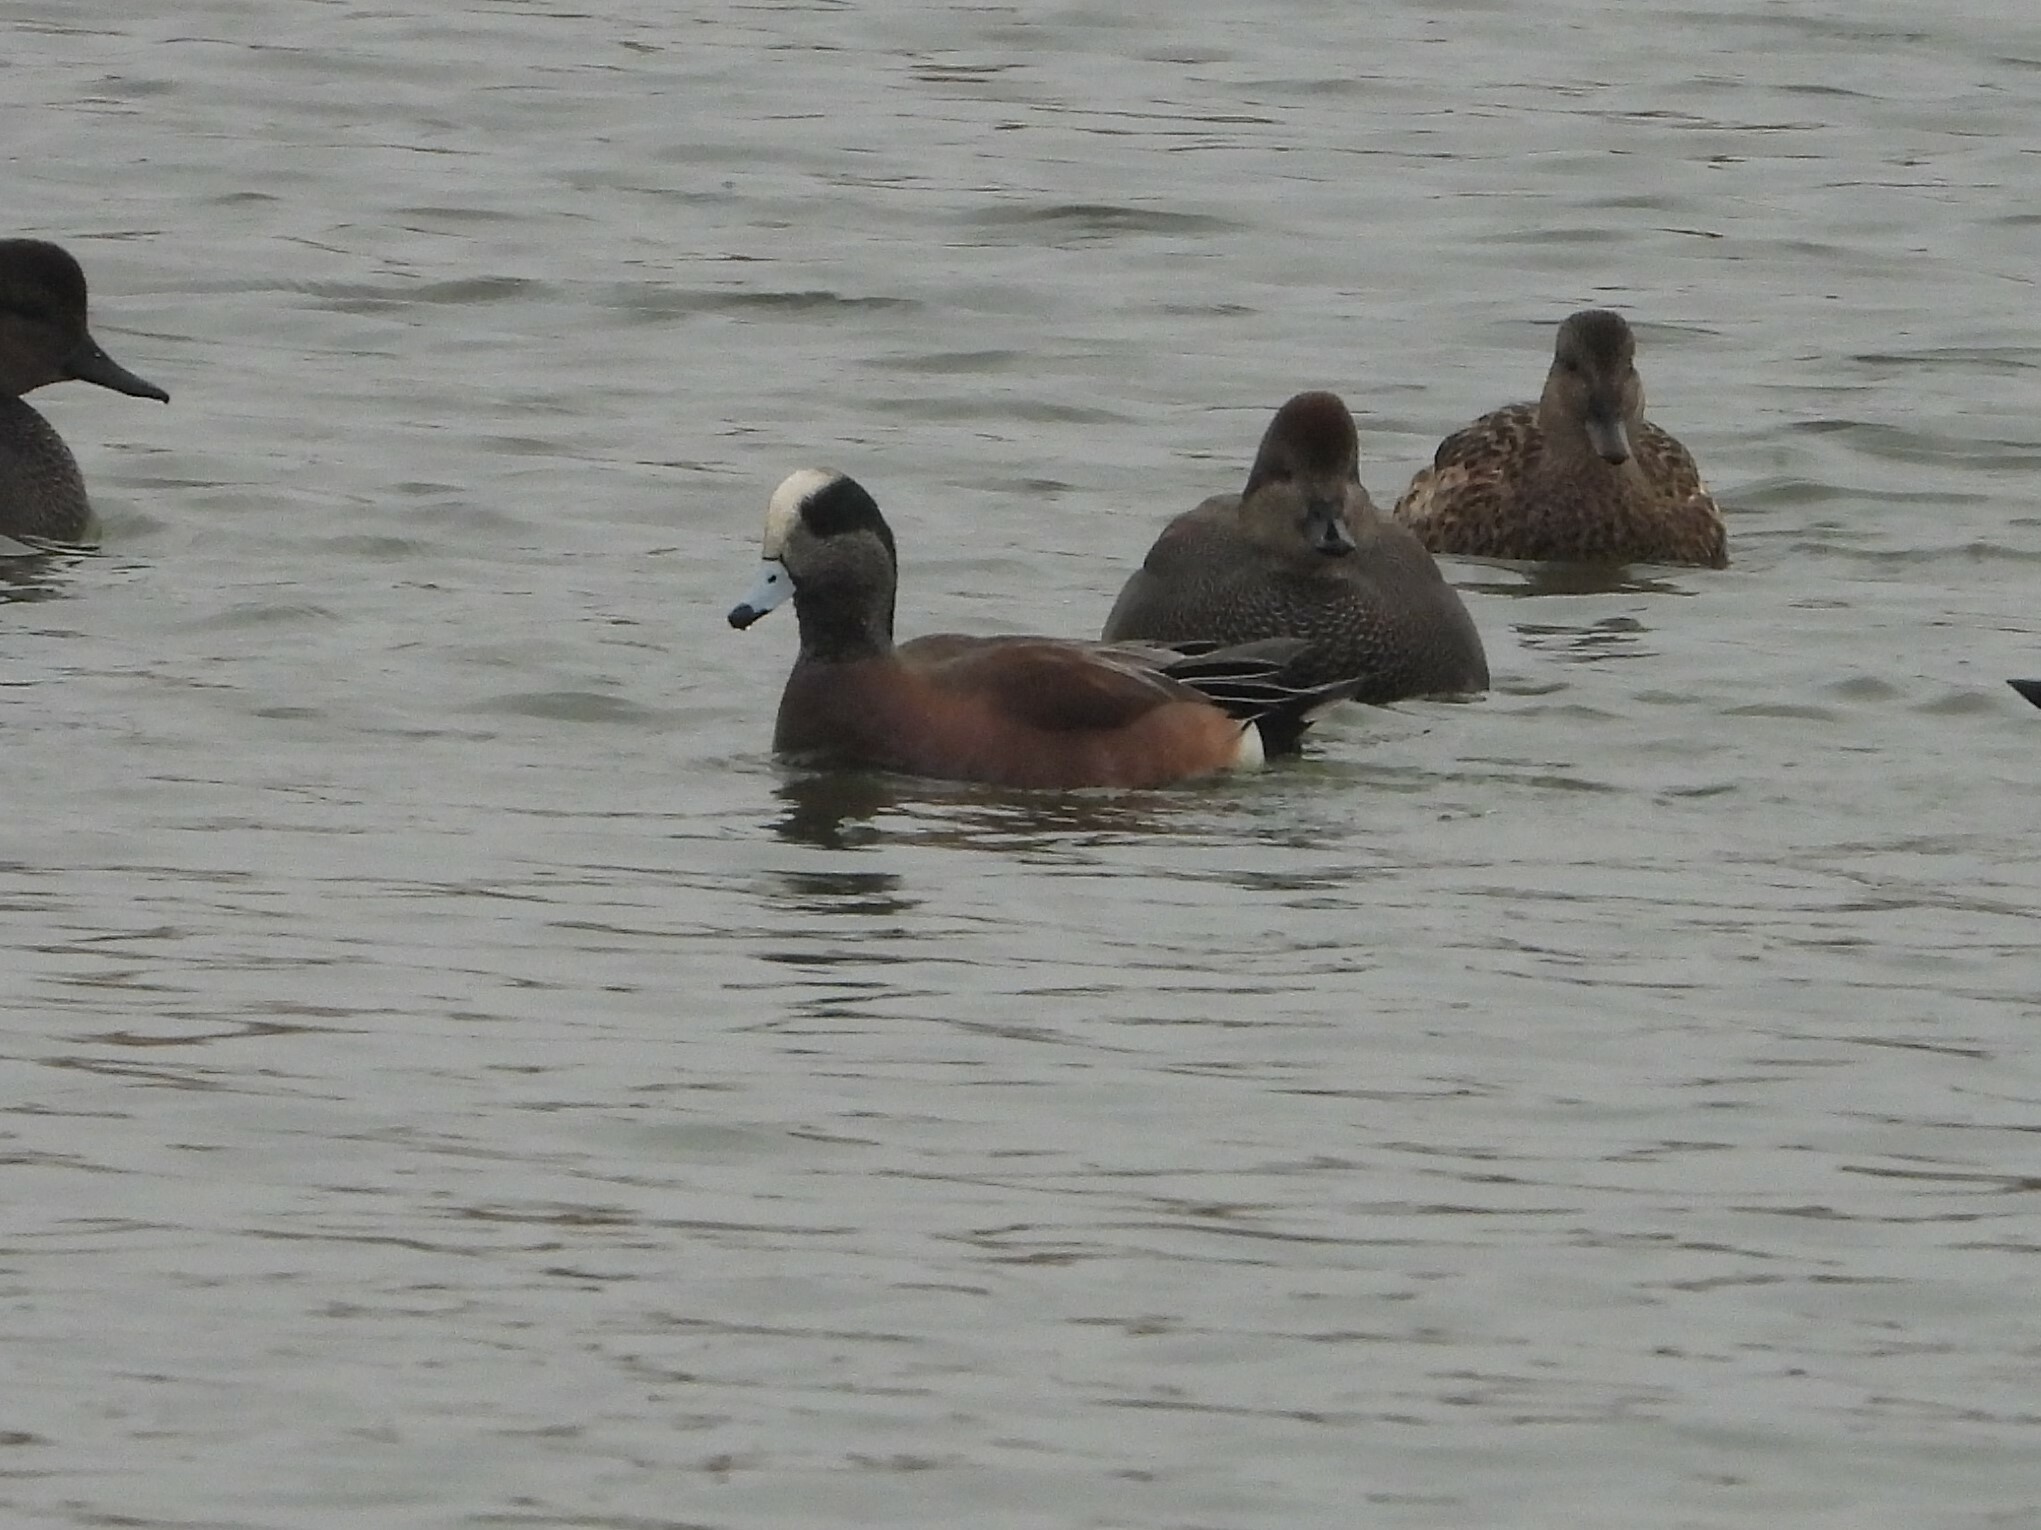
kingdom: Animalia
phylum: Chordata
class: Aves
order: Anseriformes
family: Anatidae
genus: Mareca
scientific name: Mareca americana
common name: American wigeon
